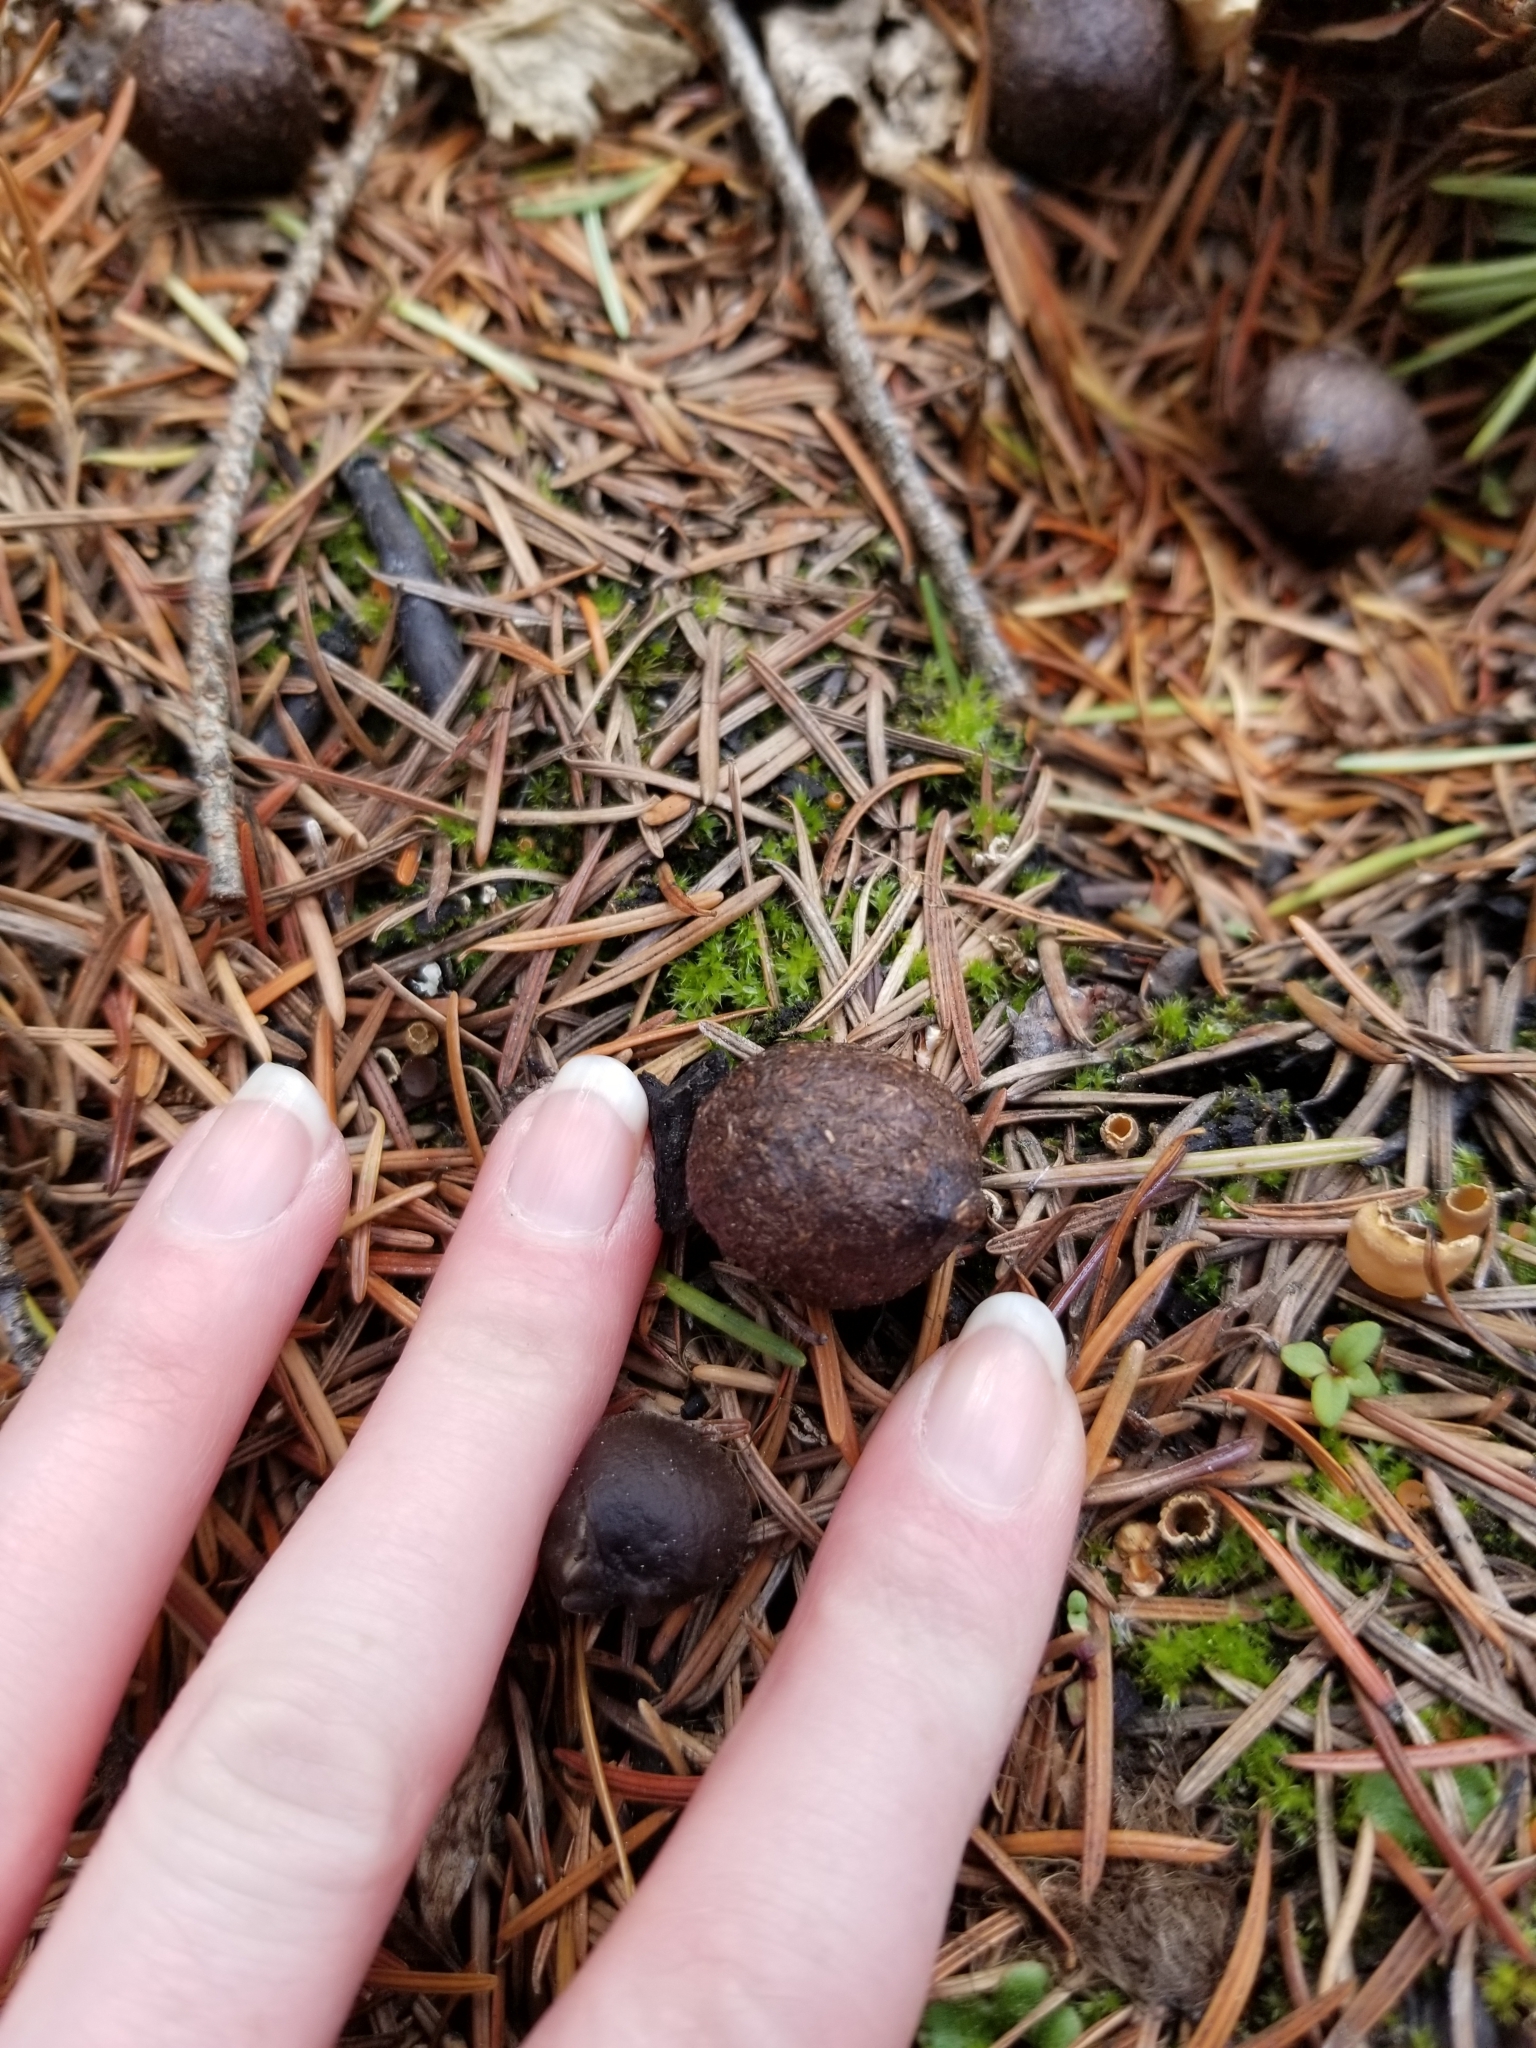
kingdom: Animalia
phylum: Chordata
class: Mammalia
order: Artiodactyla
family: Cervidae
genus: Alces
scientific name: Alces alces
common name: Moose
